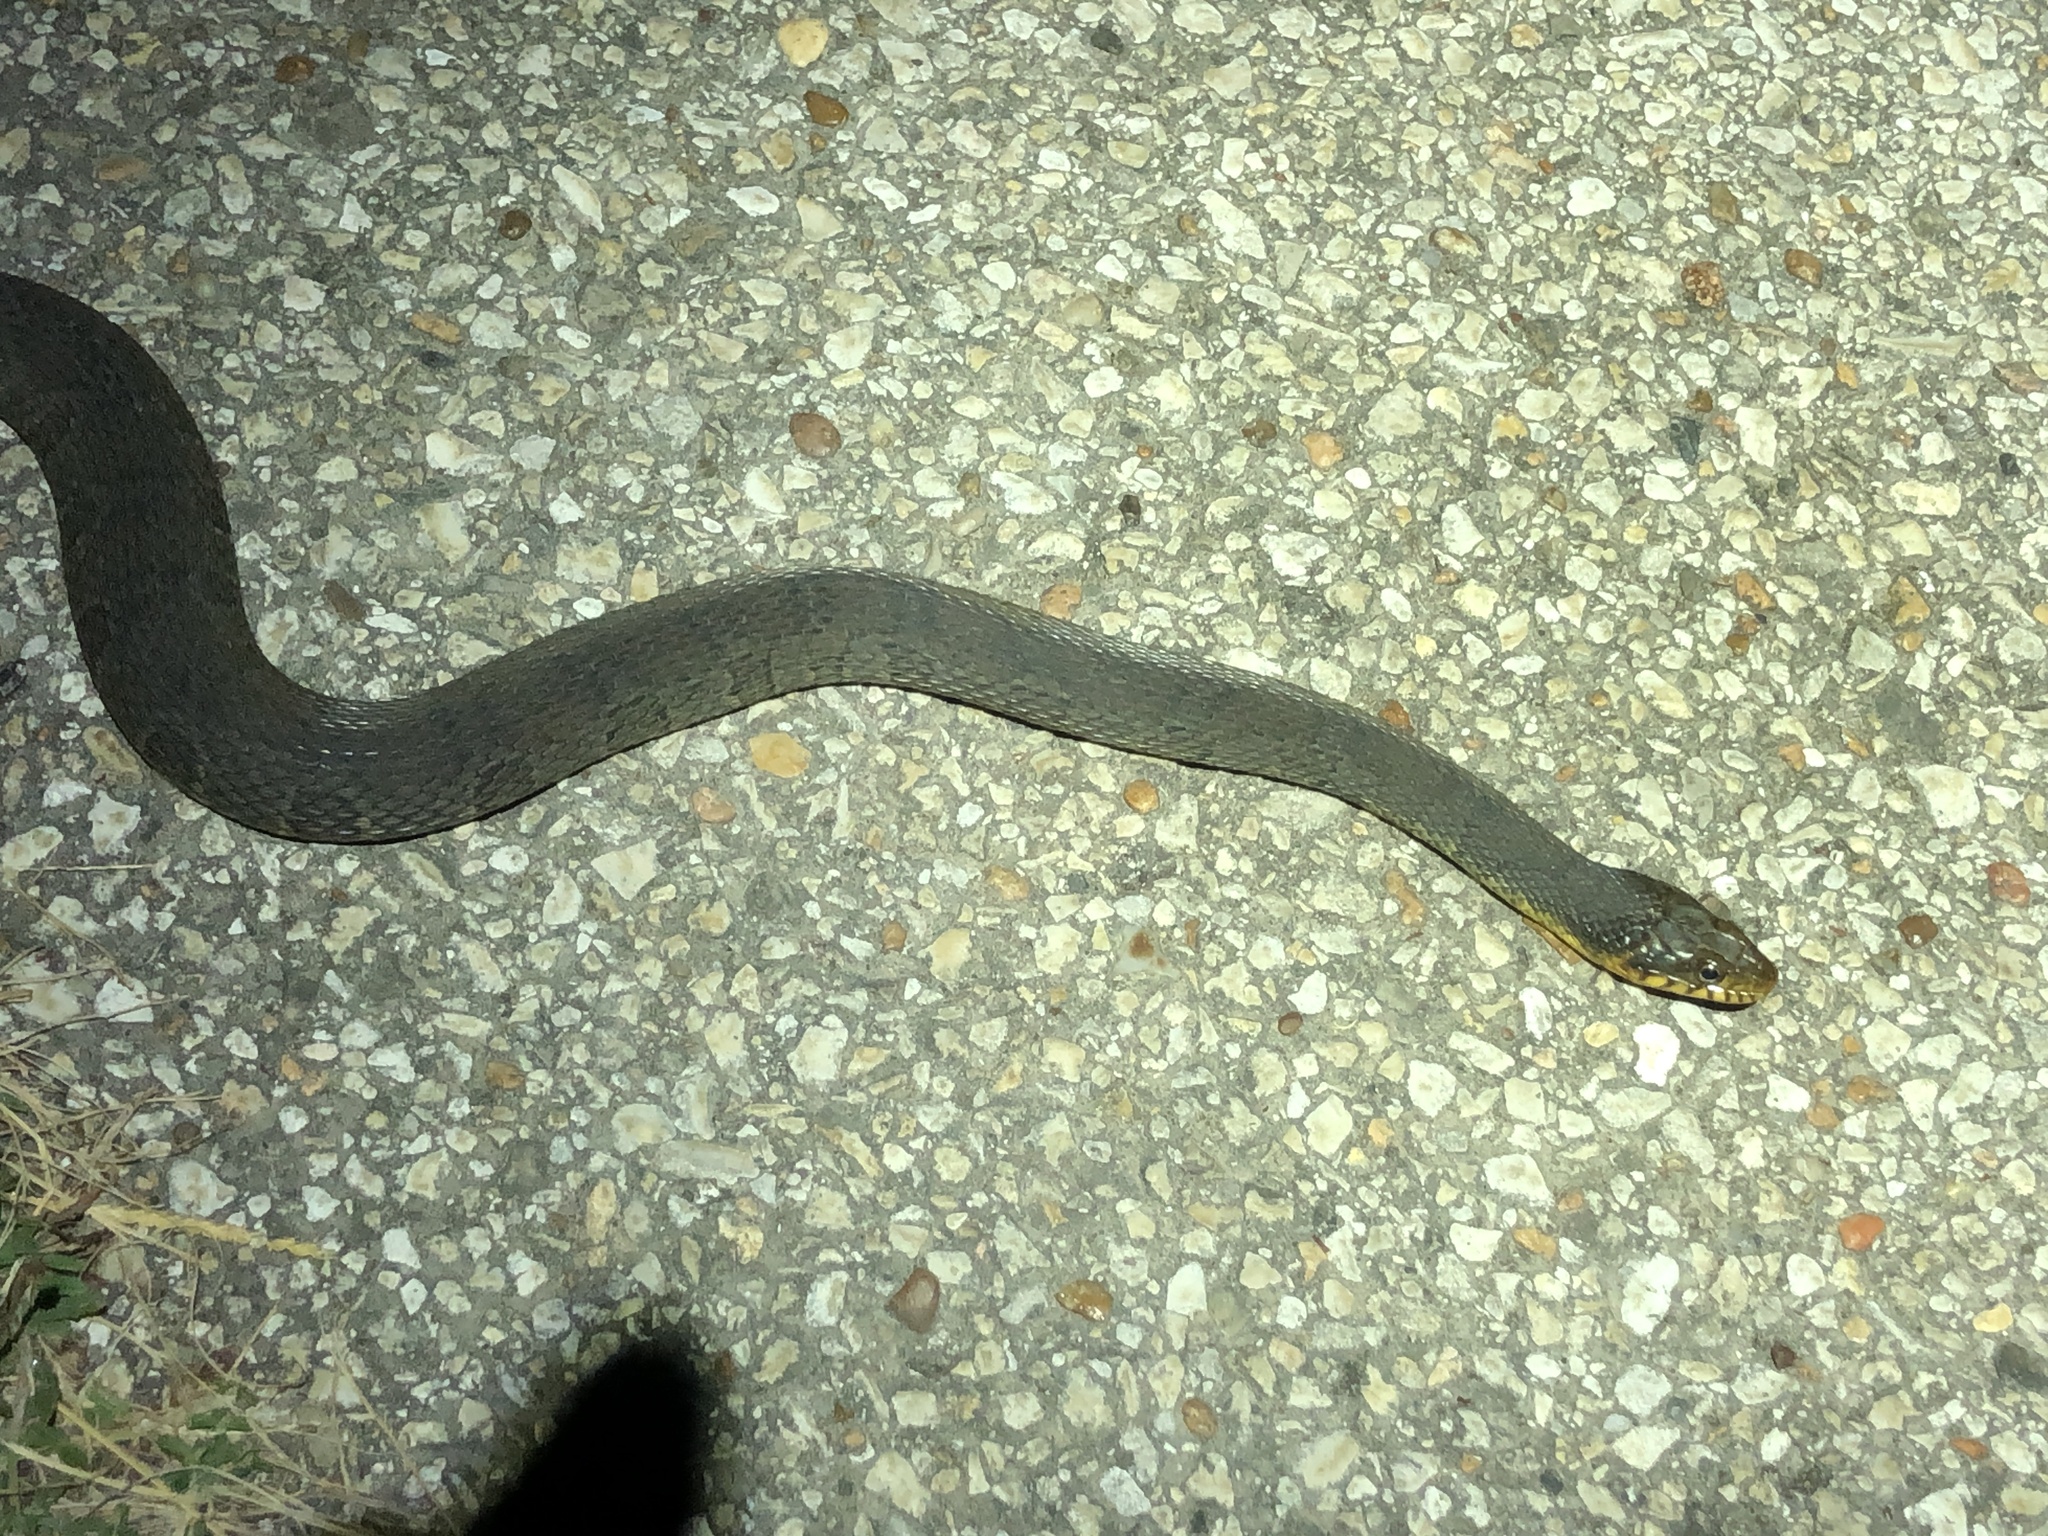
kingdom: Animalia
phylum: Chordata
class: Squamata
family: Colubridae
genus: Nerodia
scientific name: Nerodia erythrogaster
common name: Plainbelly water snake
